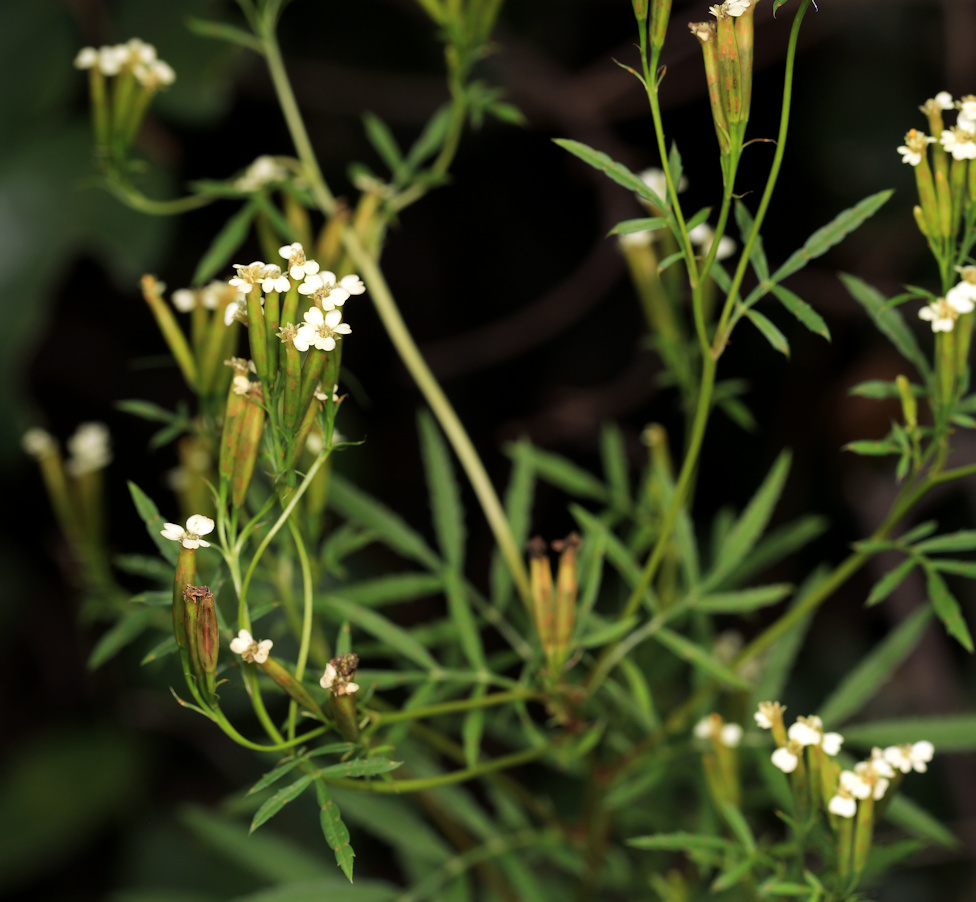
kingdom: Plantae
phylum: Tracheophyta
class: Magnoliopsida
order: Asterales
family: Asteraceae
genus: Tagetes
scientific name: Tagetes minuta
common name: Muster john henry
